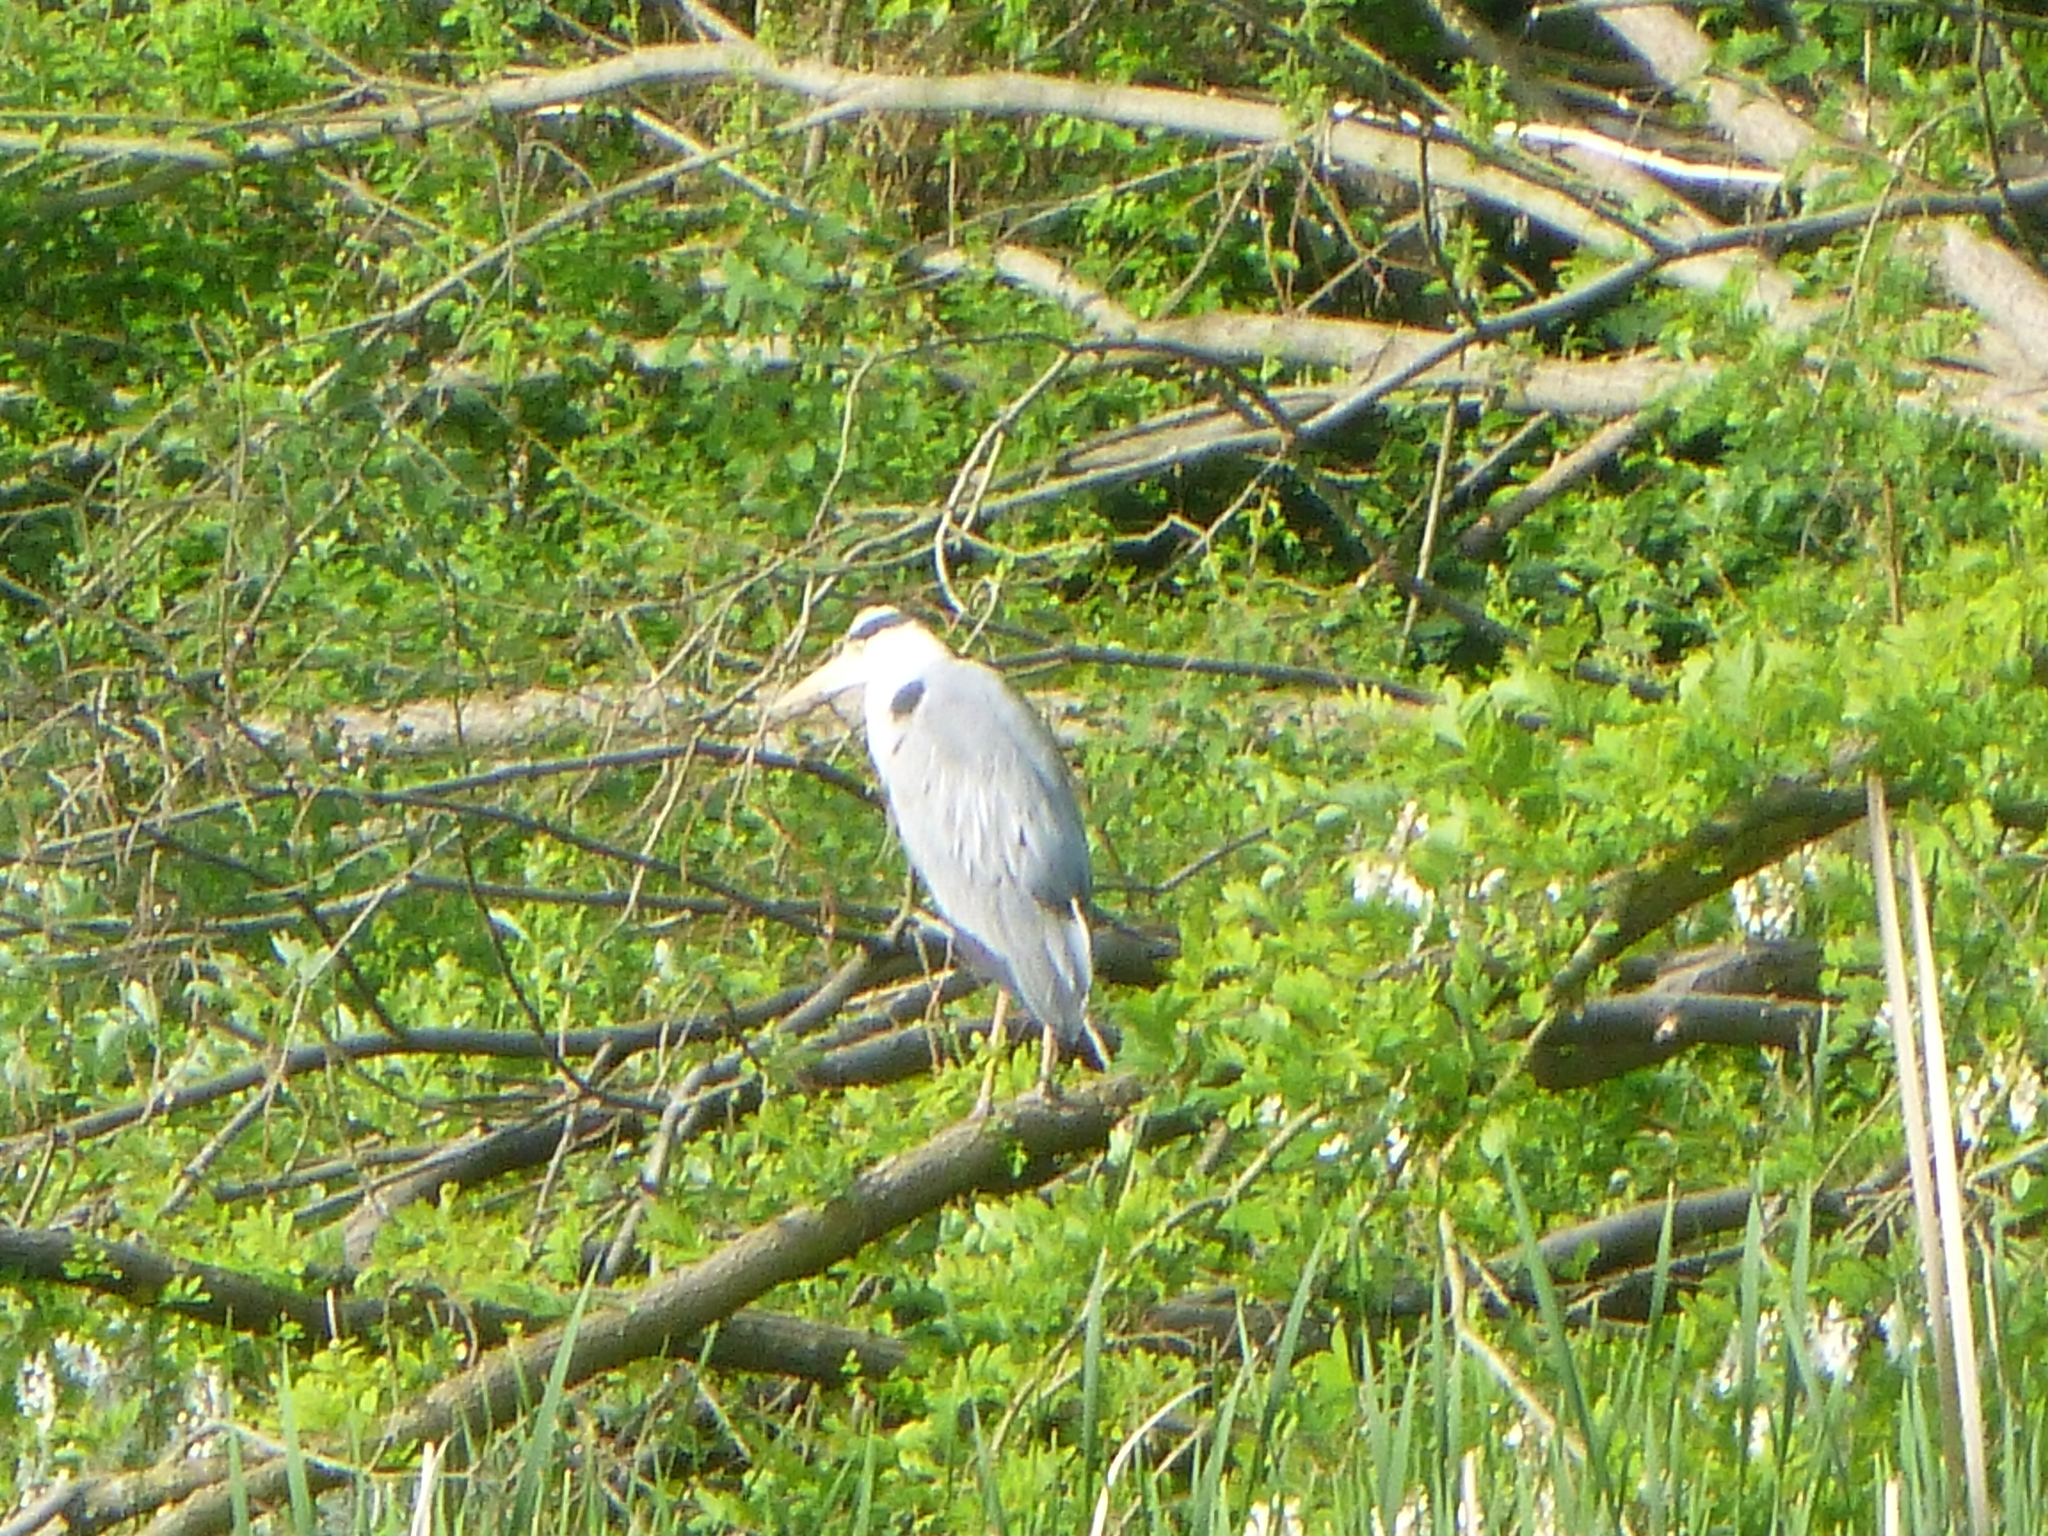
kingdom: Animalia
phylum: Chordata
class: Aves
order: Pelecaniformes
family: Ardeidae
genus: Ardea
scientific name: Ardea cinerea
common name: Grey heron
